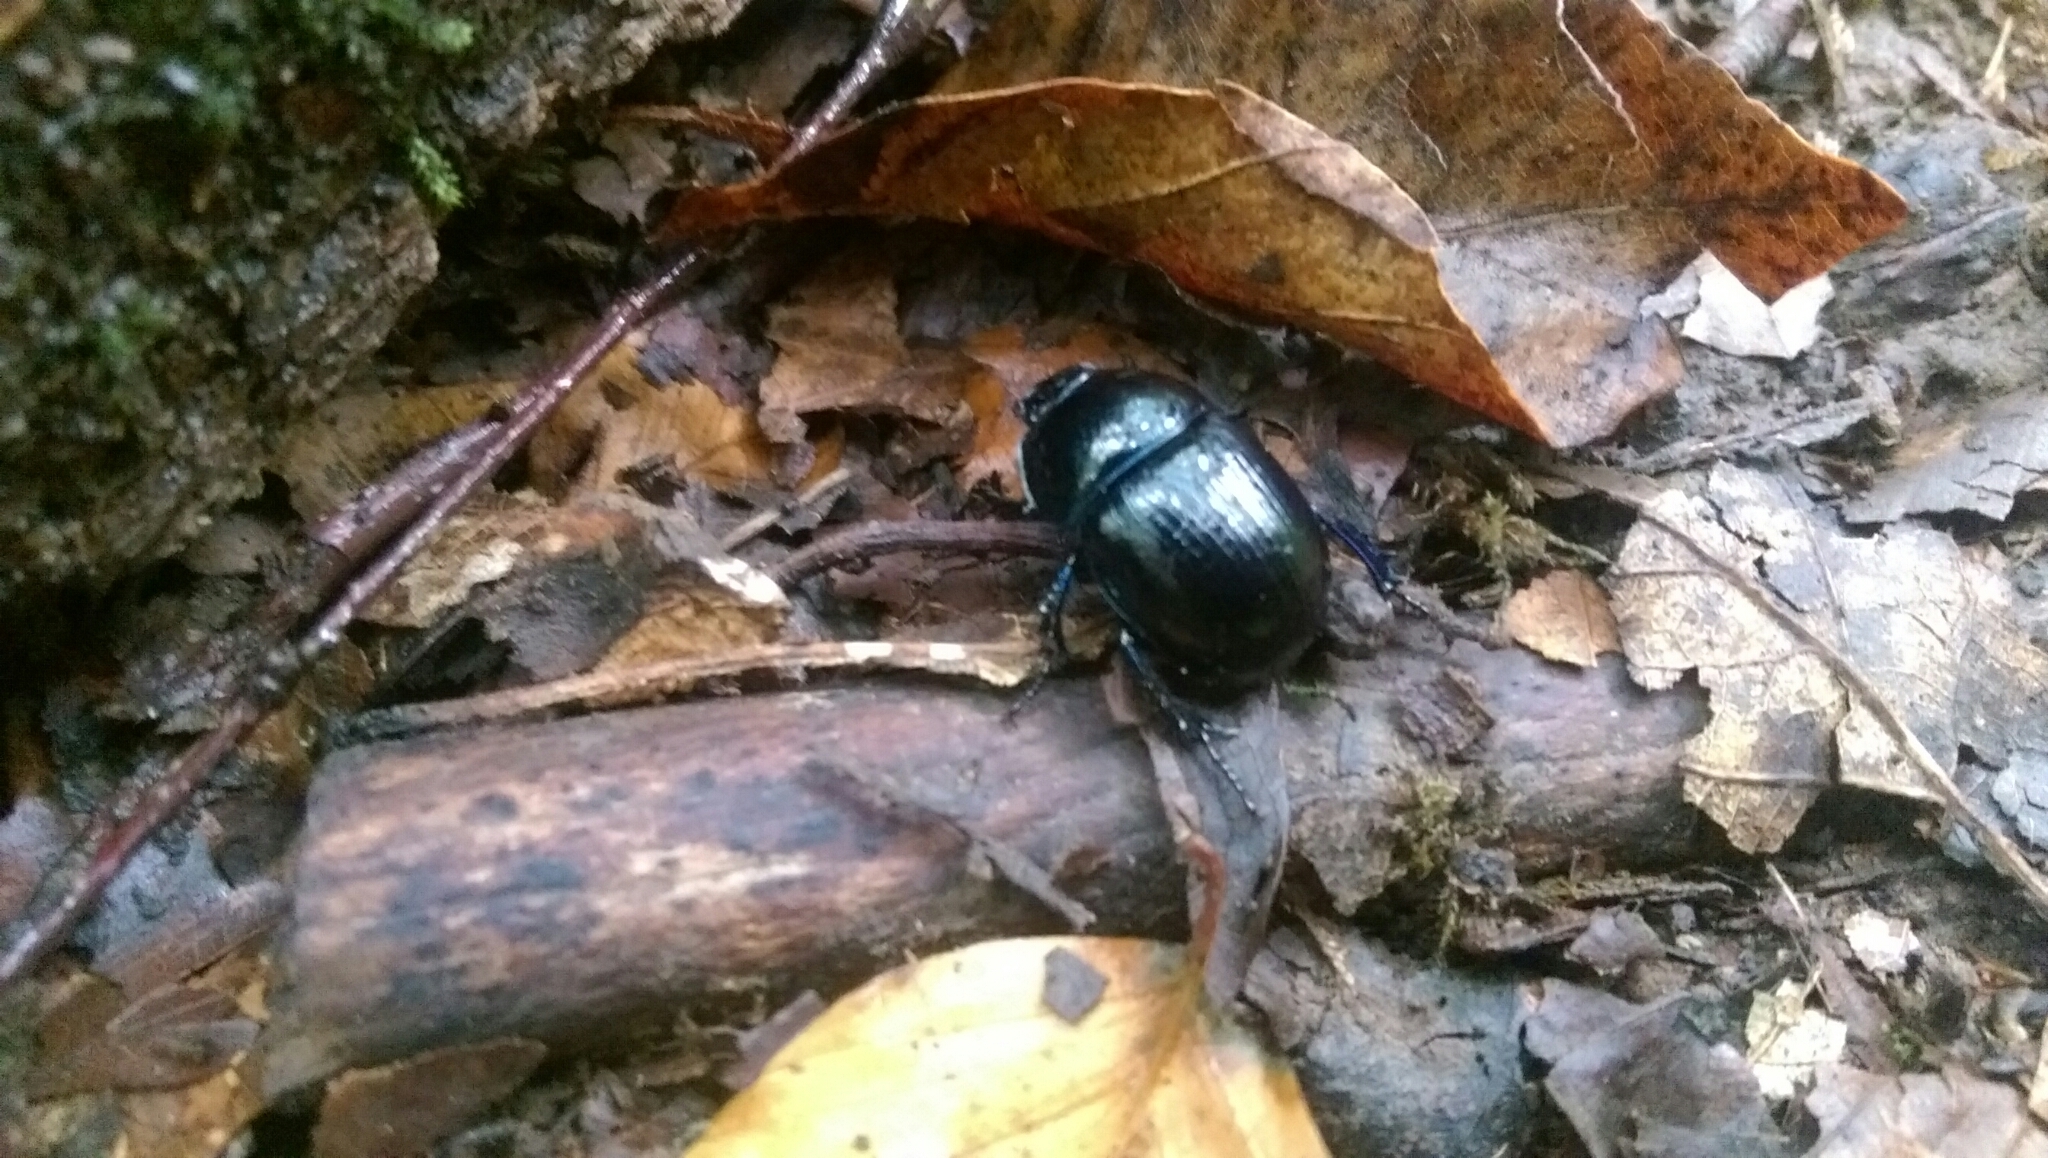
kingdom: Animalia
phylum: Arthropoda
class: Insecta
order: Coleoptera
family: Geotrupidae
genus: Anoplotrupes
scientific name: Anoplotrupes stercorosus
